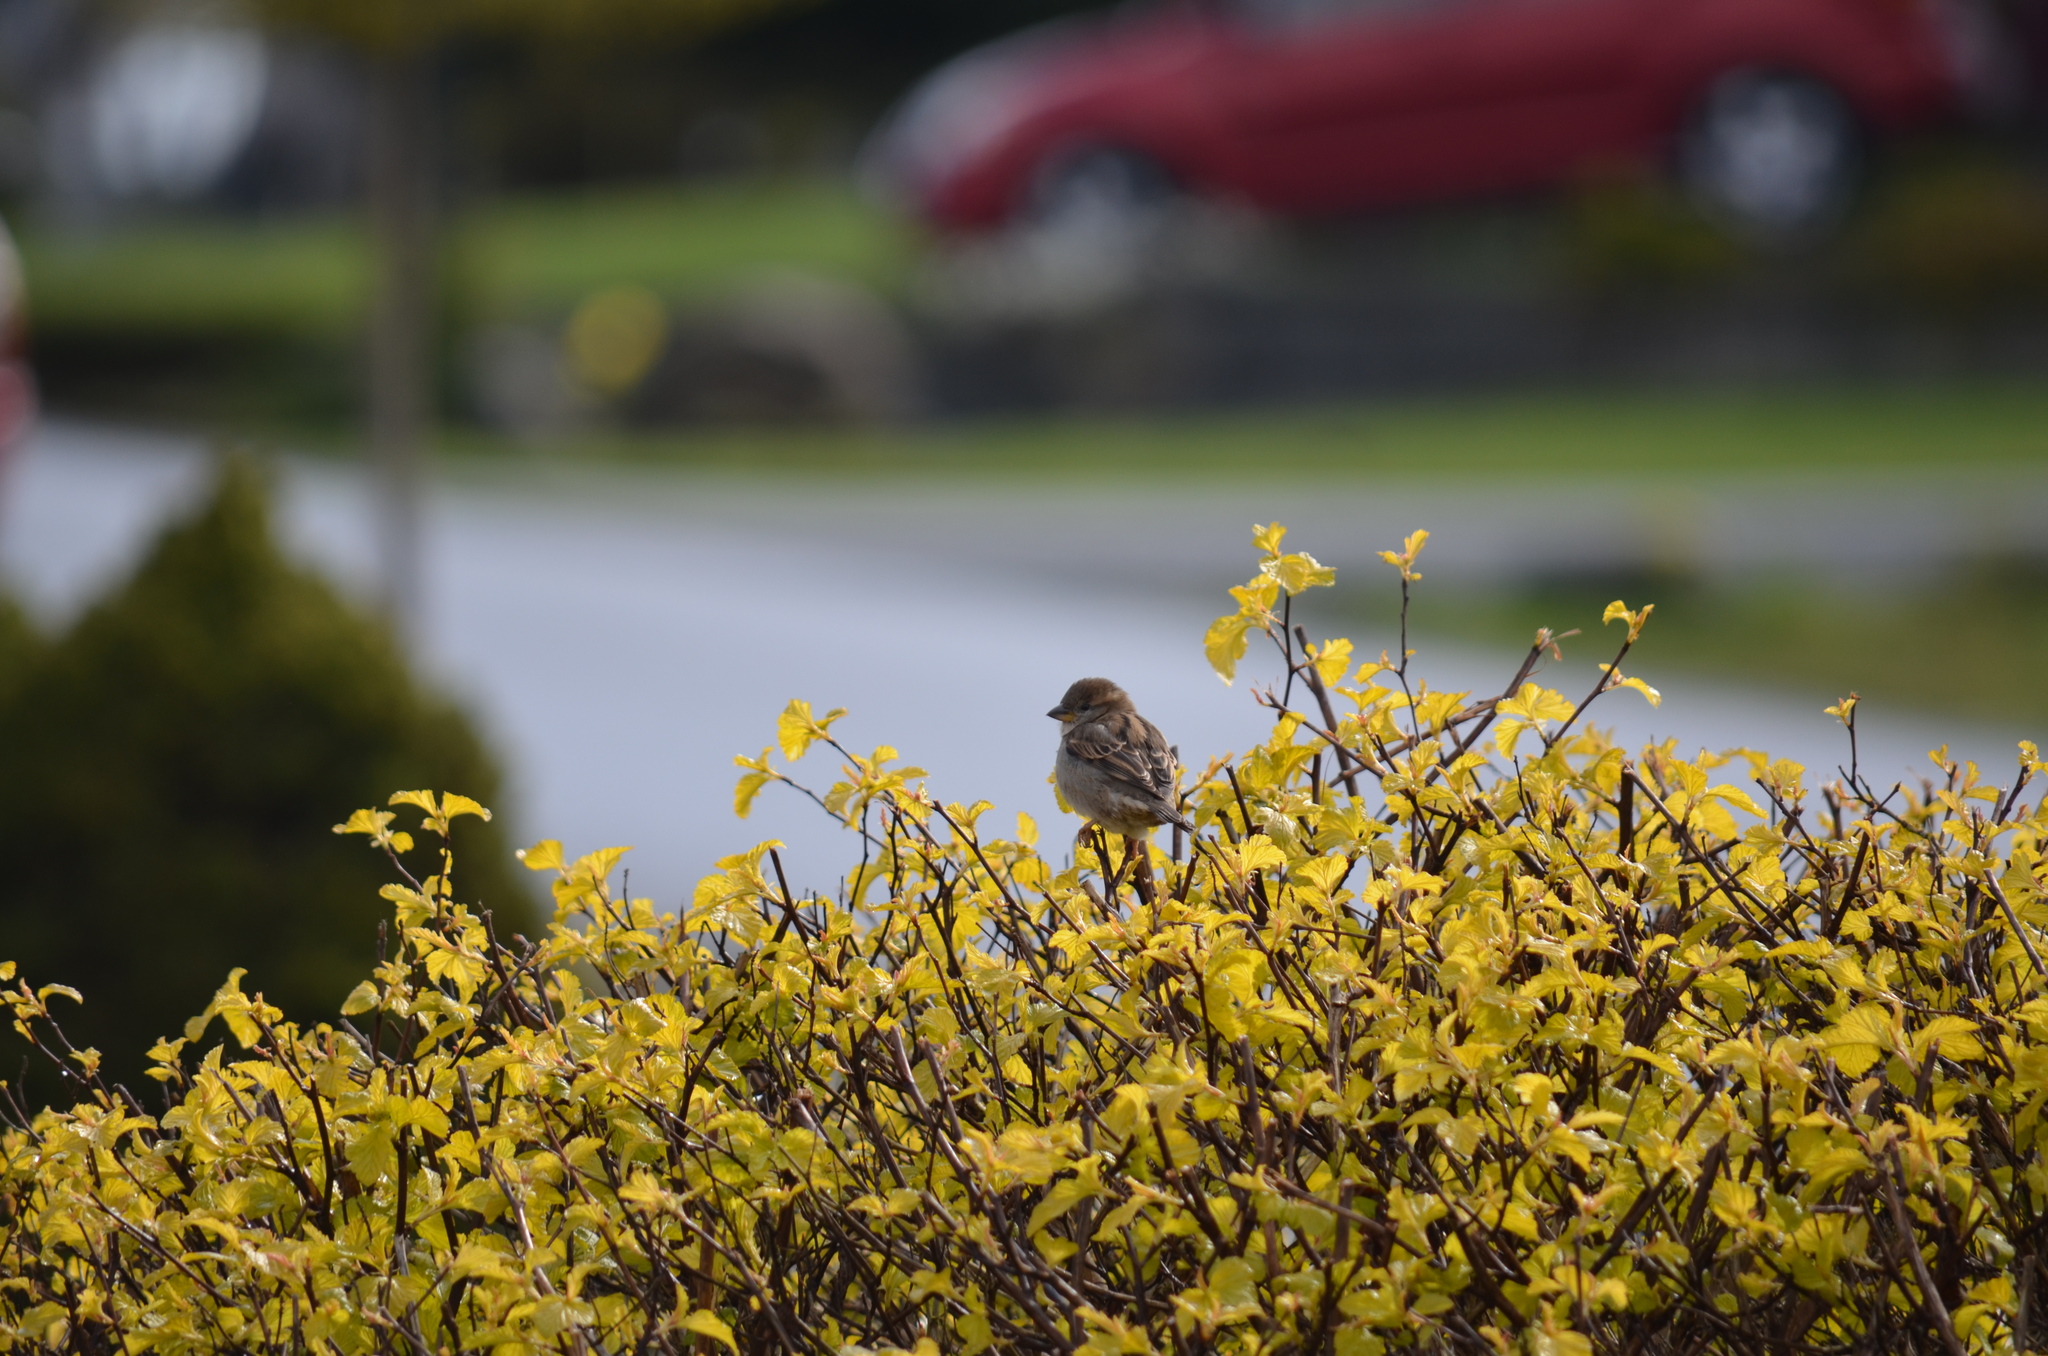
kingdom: Animalia
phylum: Chordata
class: Aves
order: Passeriformes
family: Passeridae
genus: Passer
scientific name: Passer domesticus
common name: House sparrow
